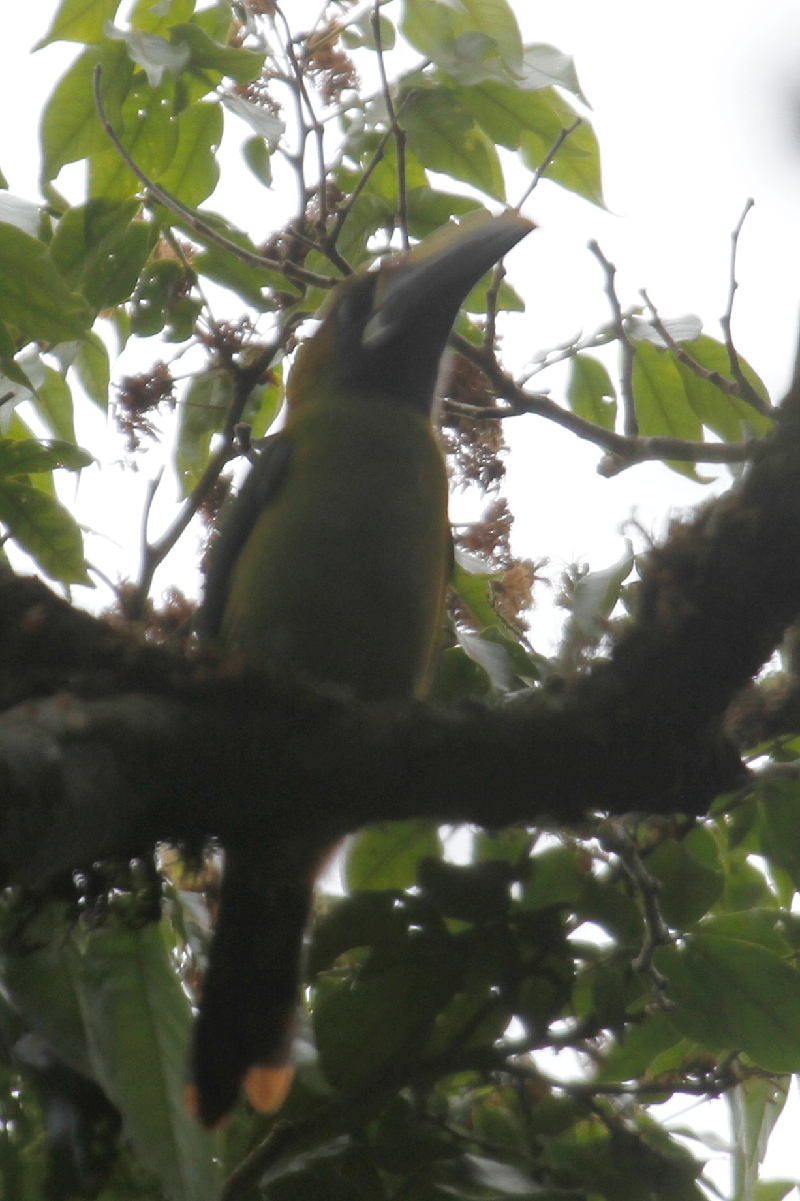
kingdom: Animalia
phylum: Chordata
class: Aves
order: Piciformes
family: Ramphastidae
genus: Aulacorhynchus
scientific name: Aulacorhynchus prasinus
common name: Emerald toucanet
